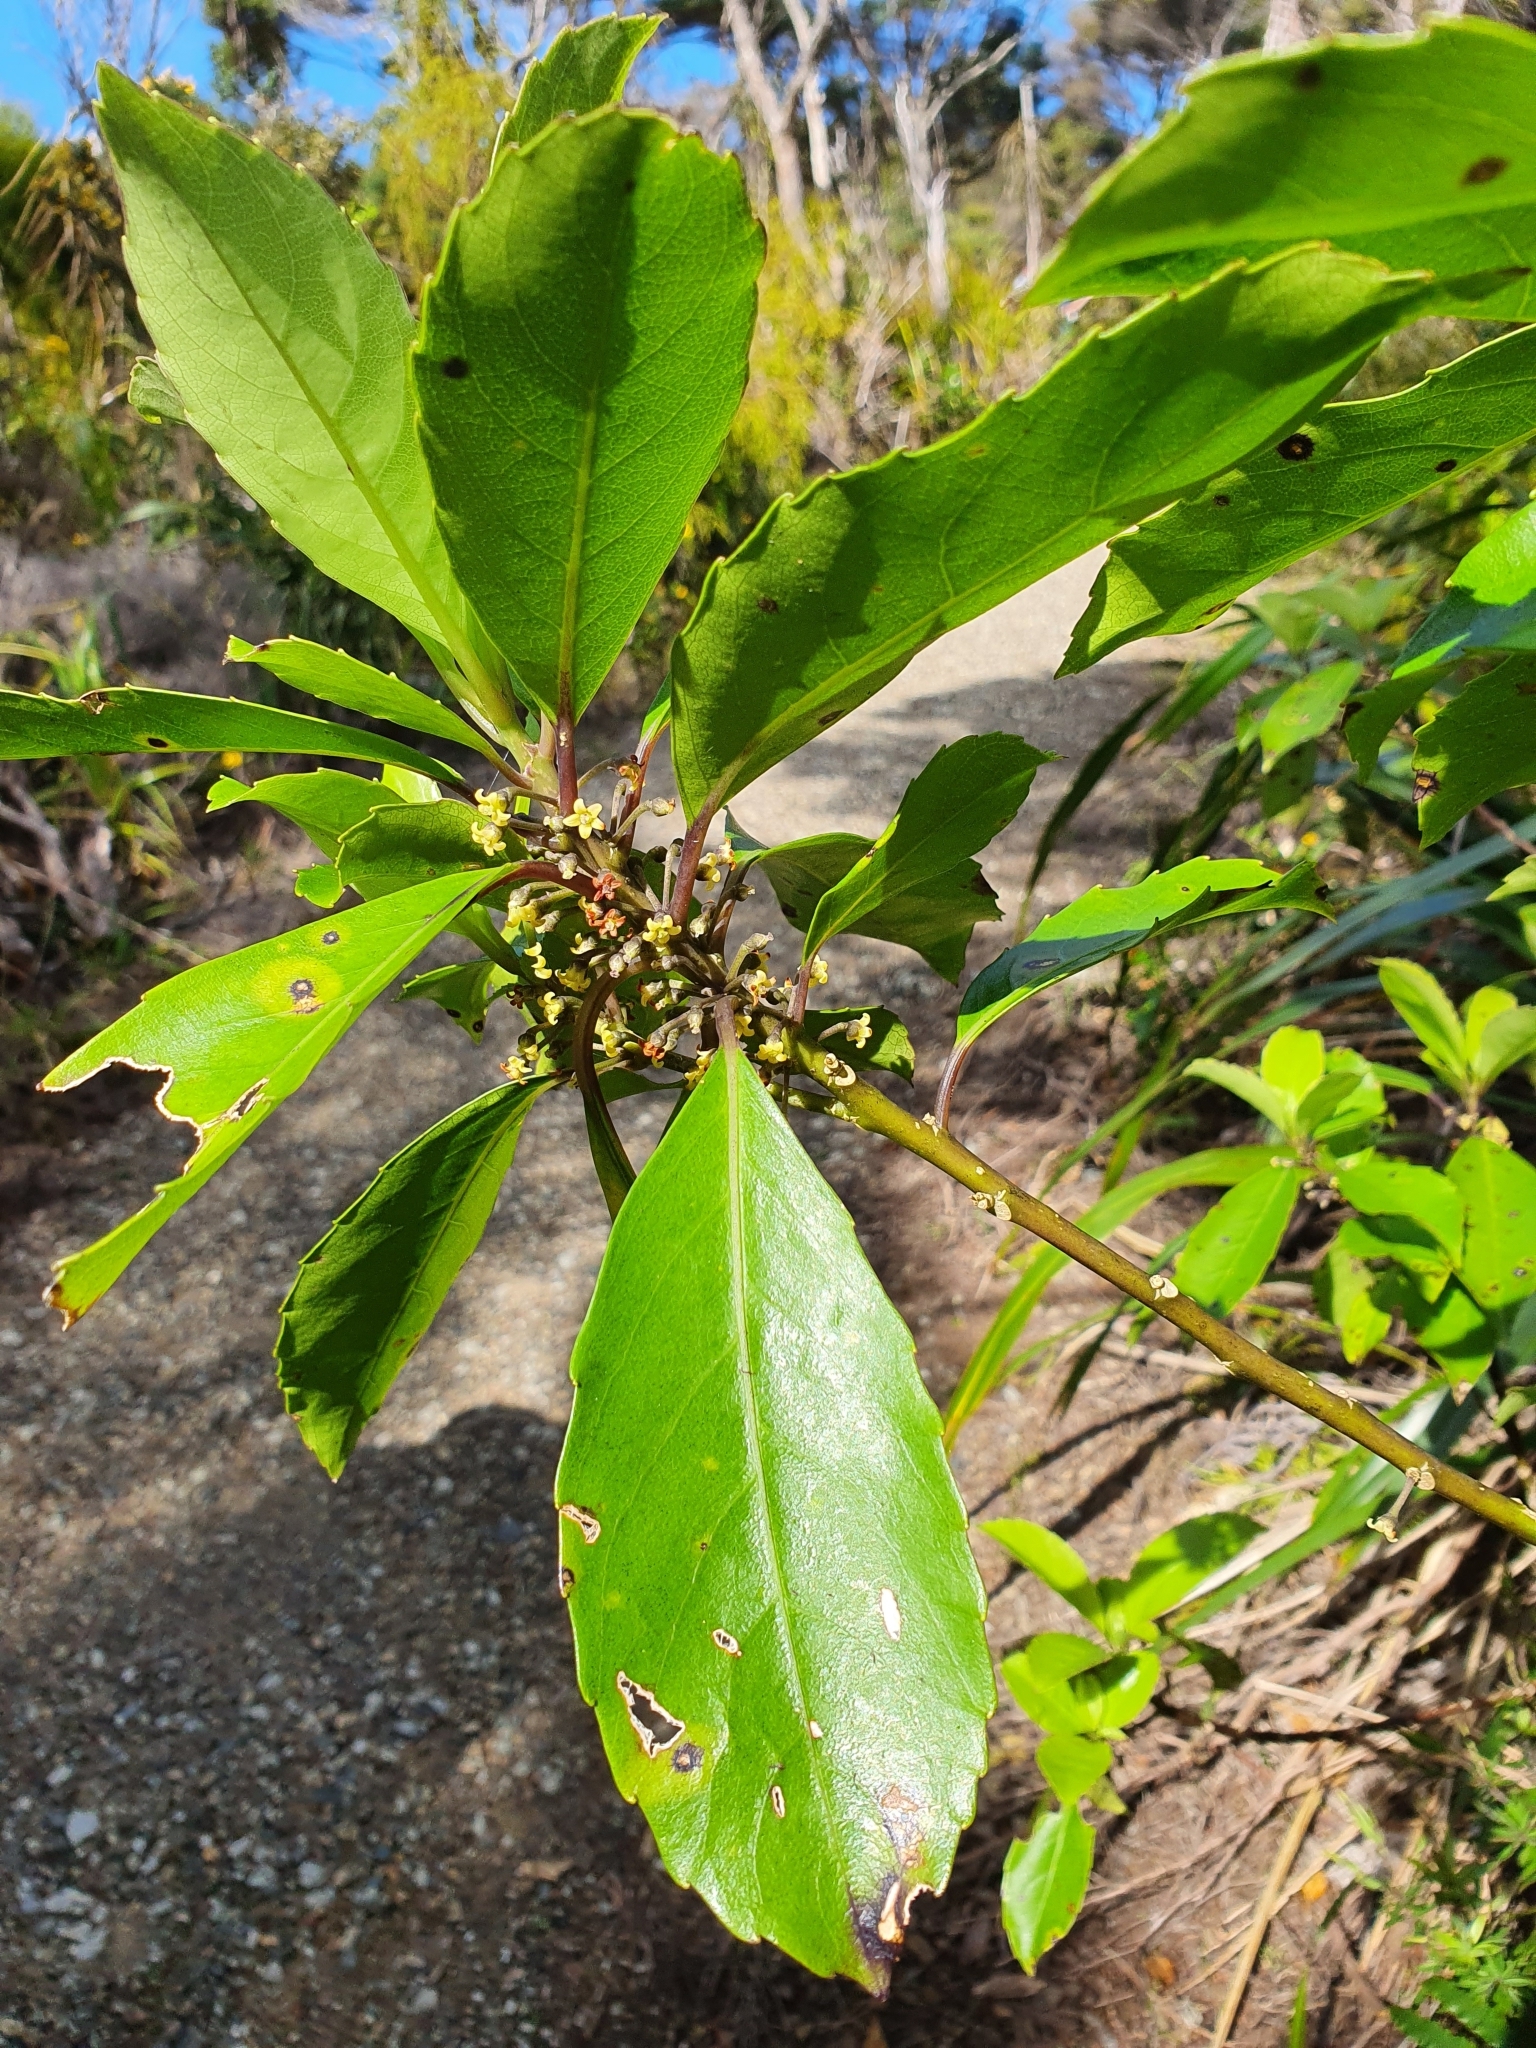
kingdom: Plantae
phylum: Tracheophyta
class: Magnoliopsida
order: Malpighiales
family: Violaceae
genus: Melicytus
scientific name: Melicytus macrophyllus
